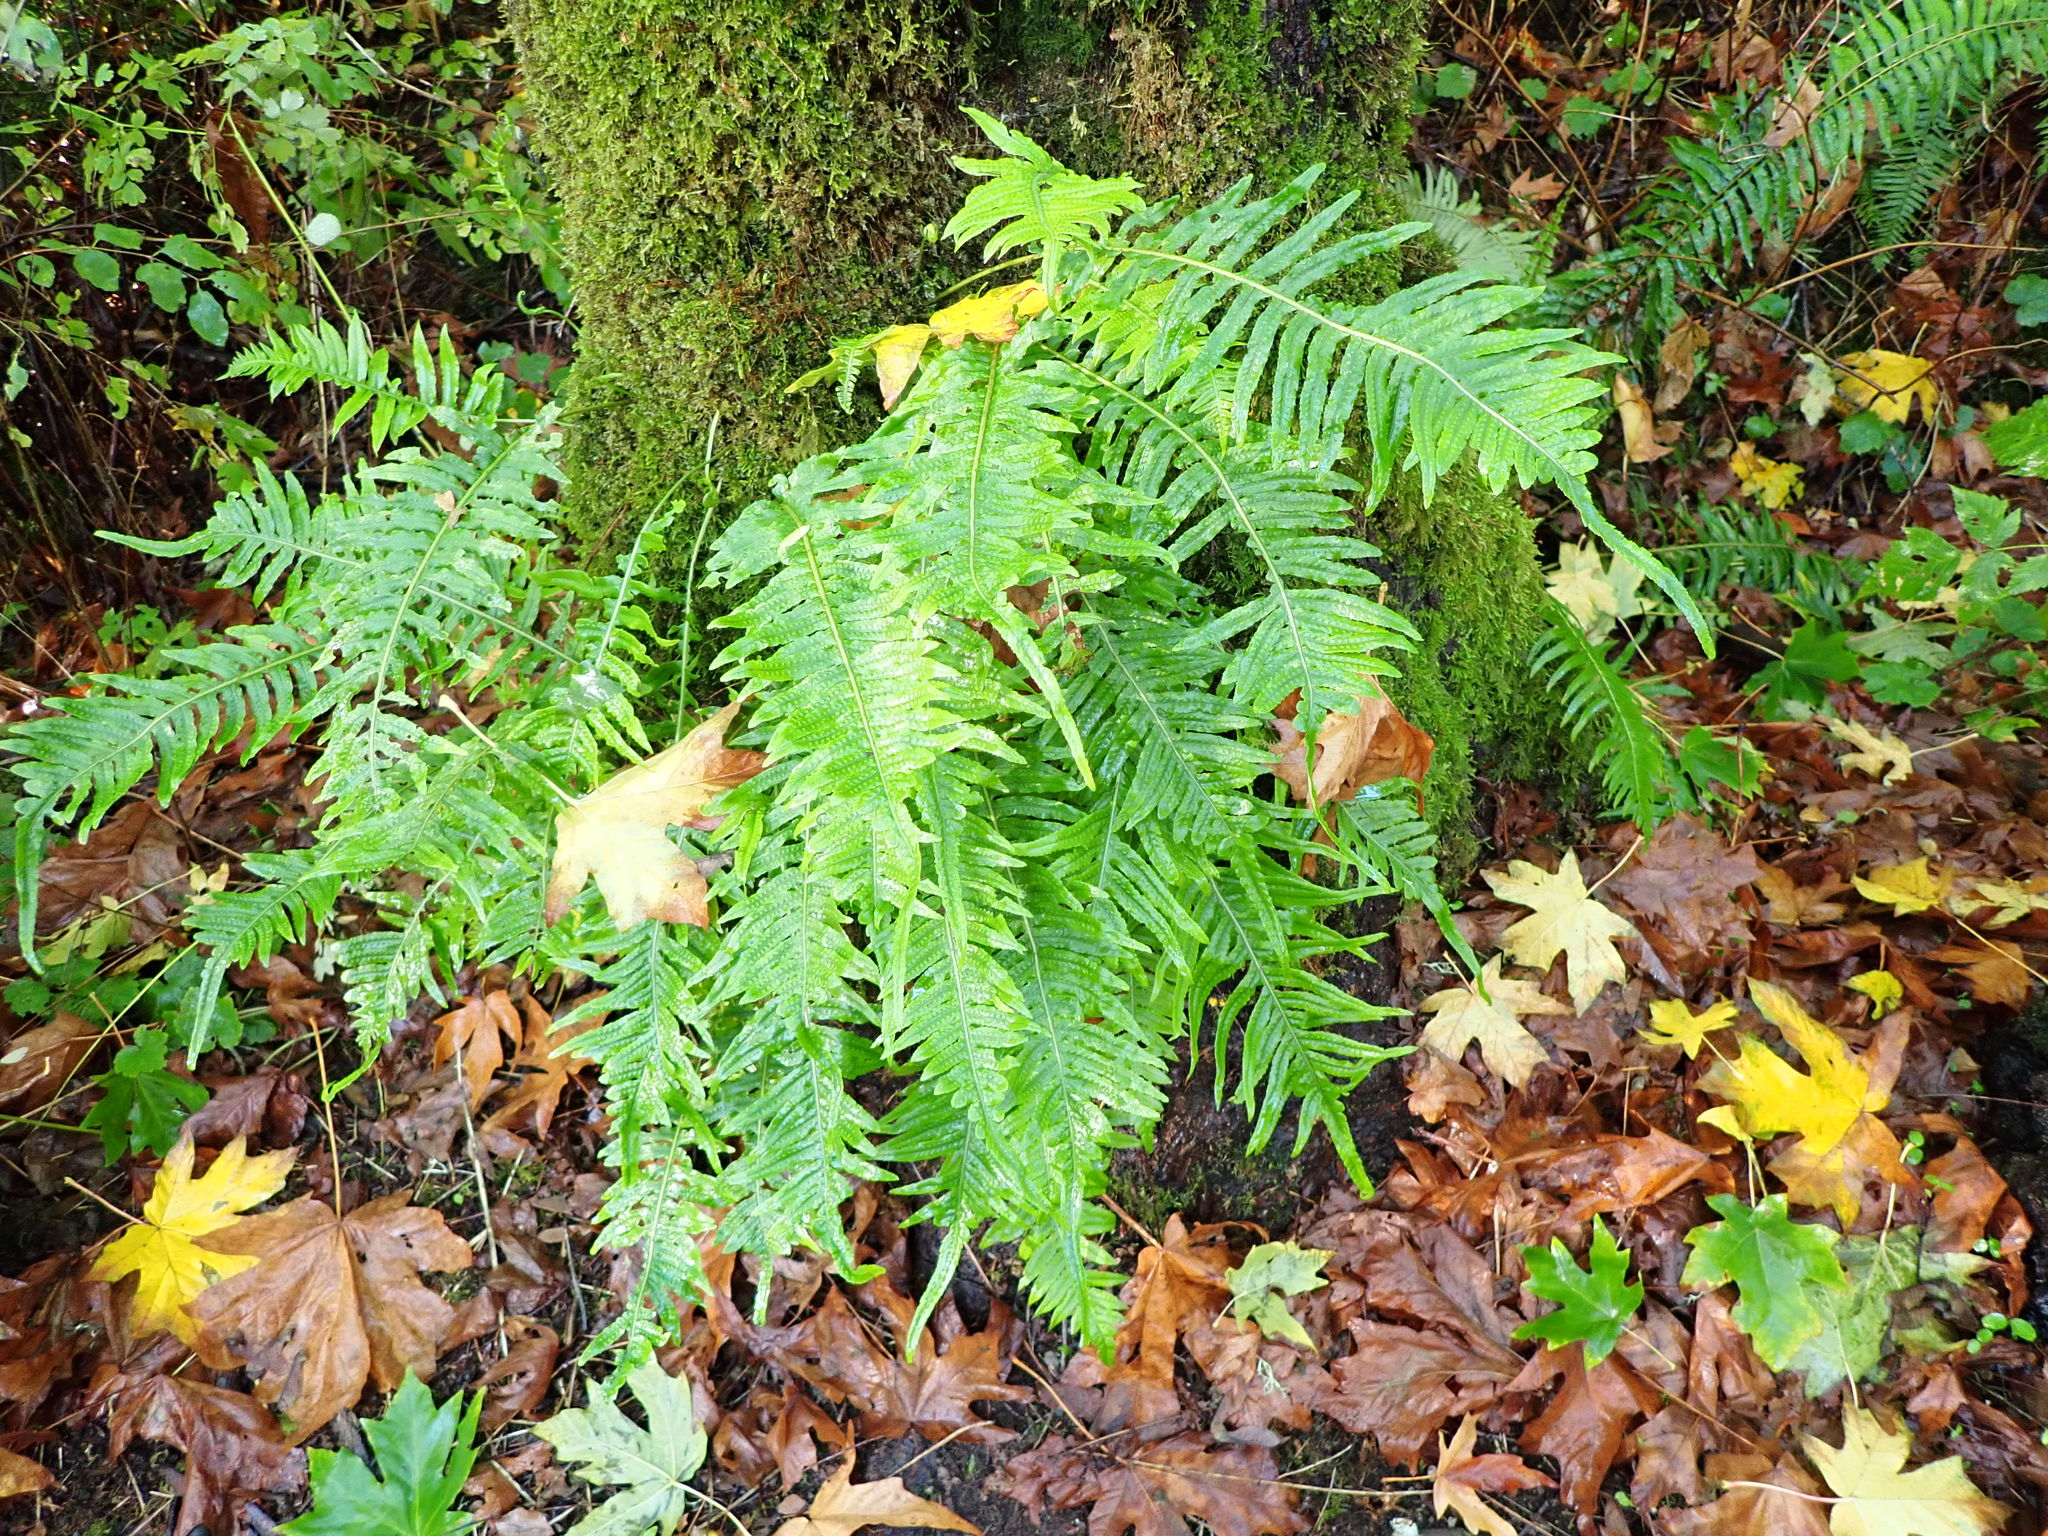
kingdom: Plantae
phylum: Tracheophyta
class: Polypodiopsida
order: Polypodiales
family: Polypodiaceae
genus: Polypodium
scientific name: Polypodium glycyrrhiza
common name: Licorice fern
